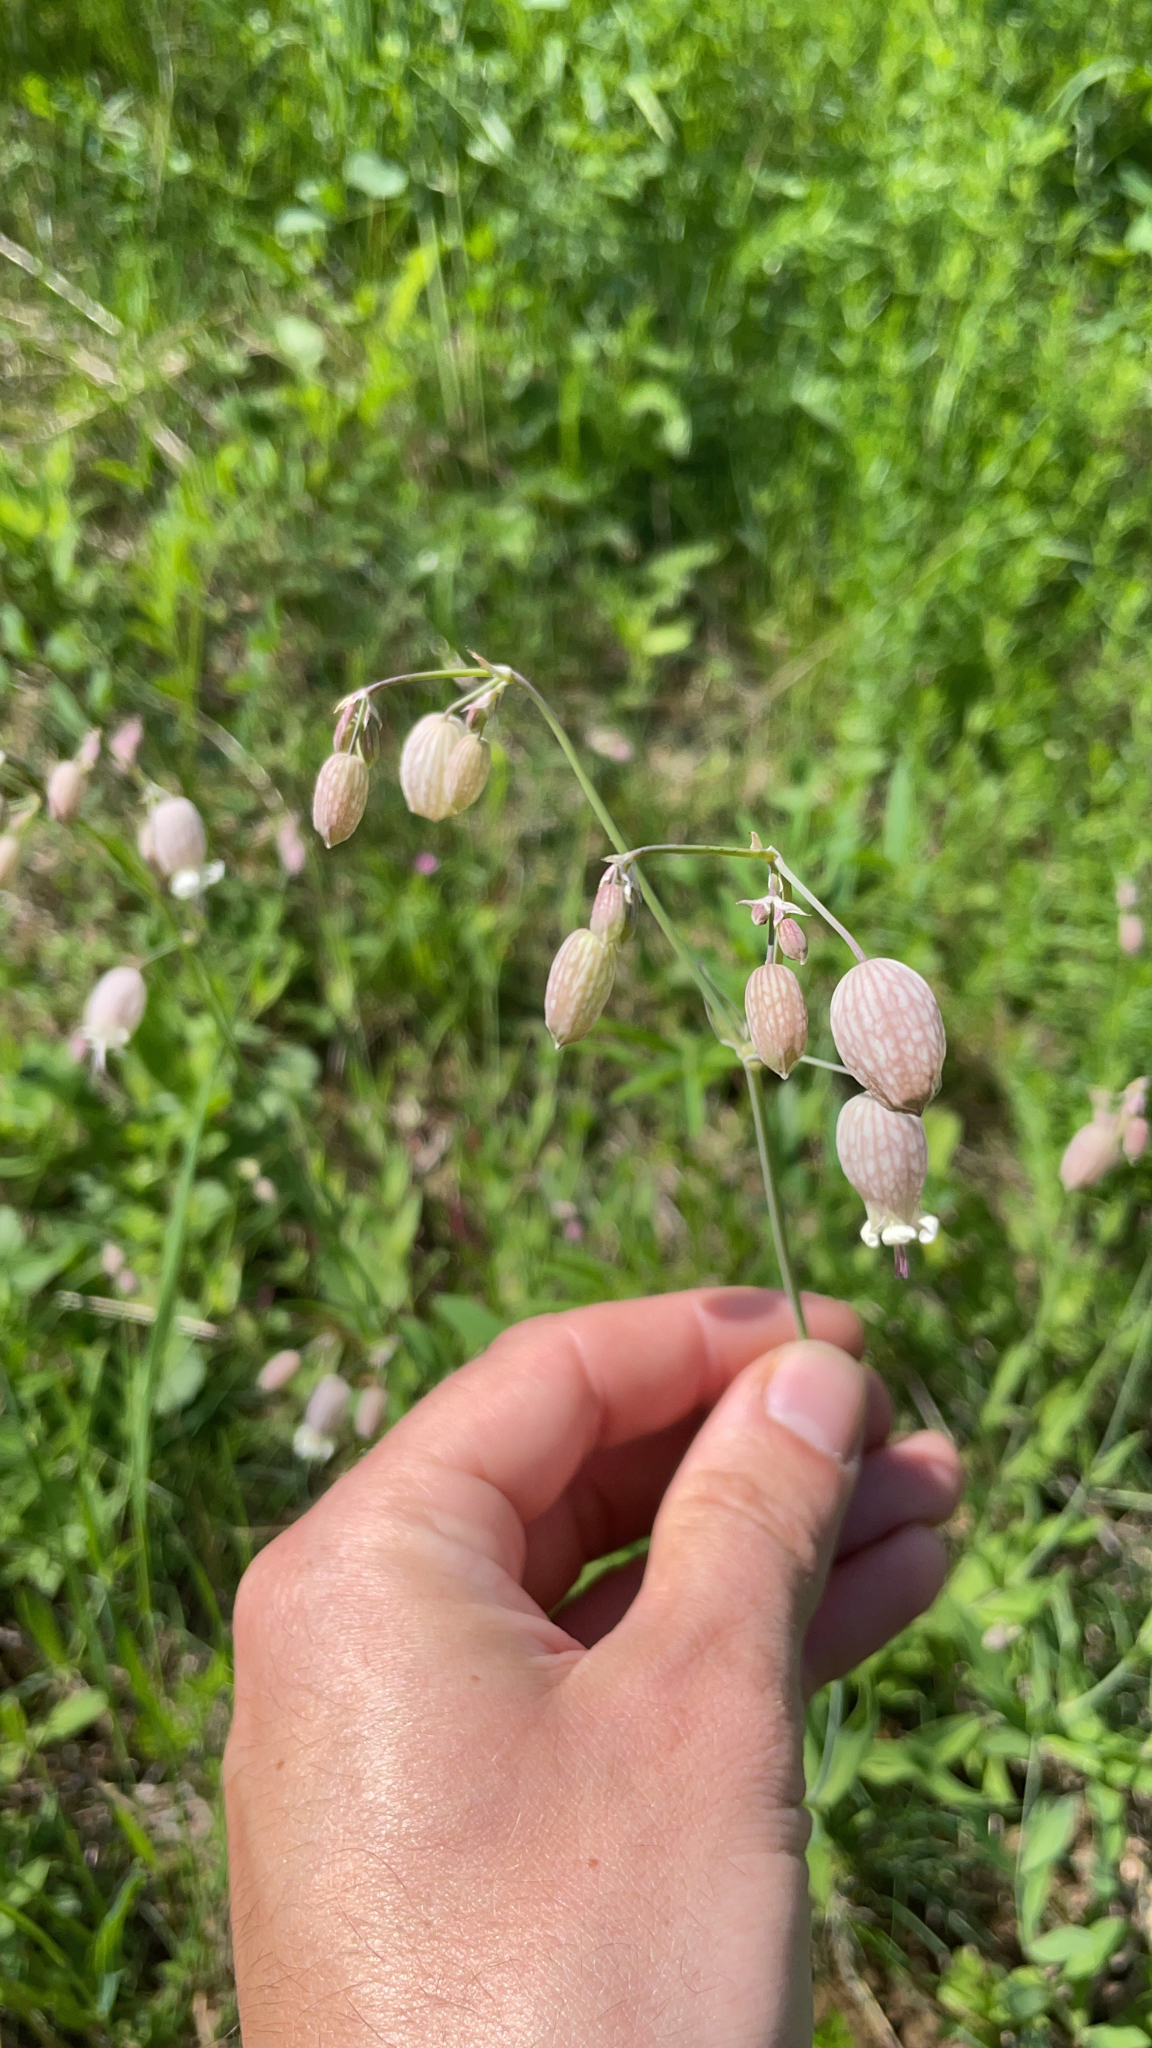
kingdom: Plantae
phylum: Tracheophyta
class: Magnoliopsida
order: Caryophyllales
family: Caryophyllaceae
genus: Silene
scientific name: Silene vulgaris
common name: Bladder campion
